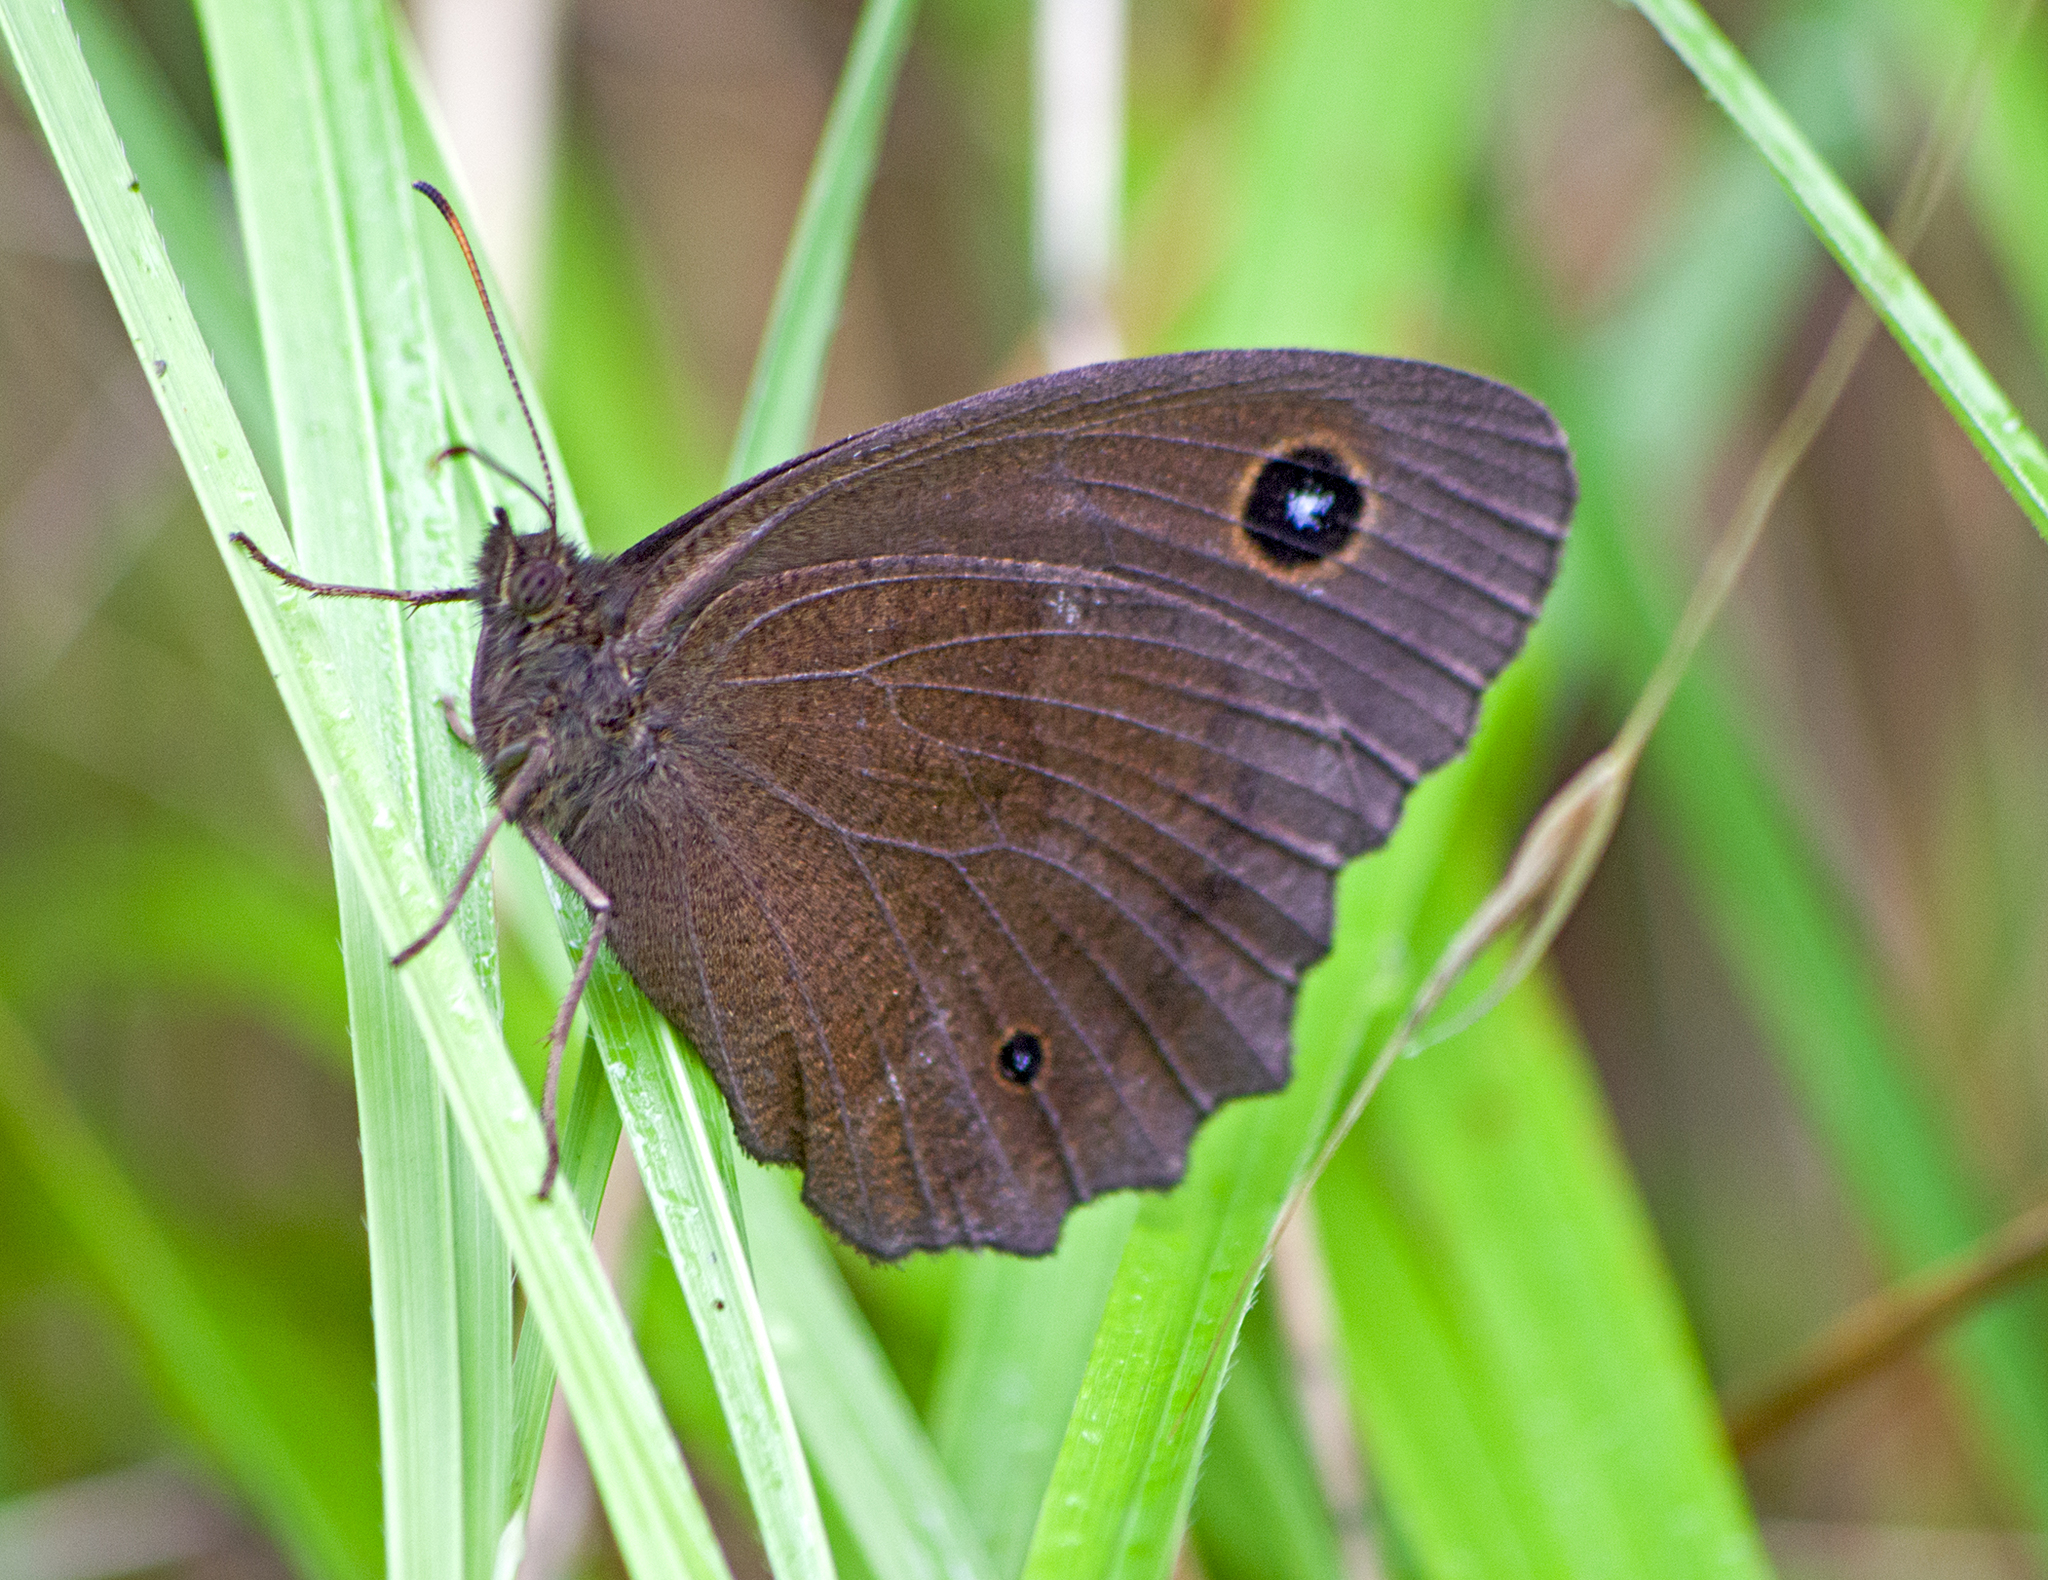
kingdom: Animalia
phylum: Arthropoda
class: Insecta
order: Lepidoptera
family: Nymphalidae
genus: Minois
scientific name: Minois dryas
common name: Dryad
